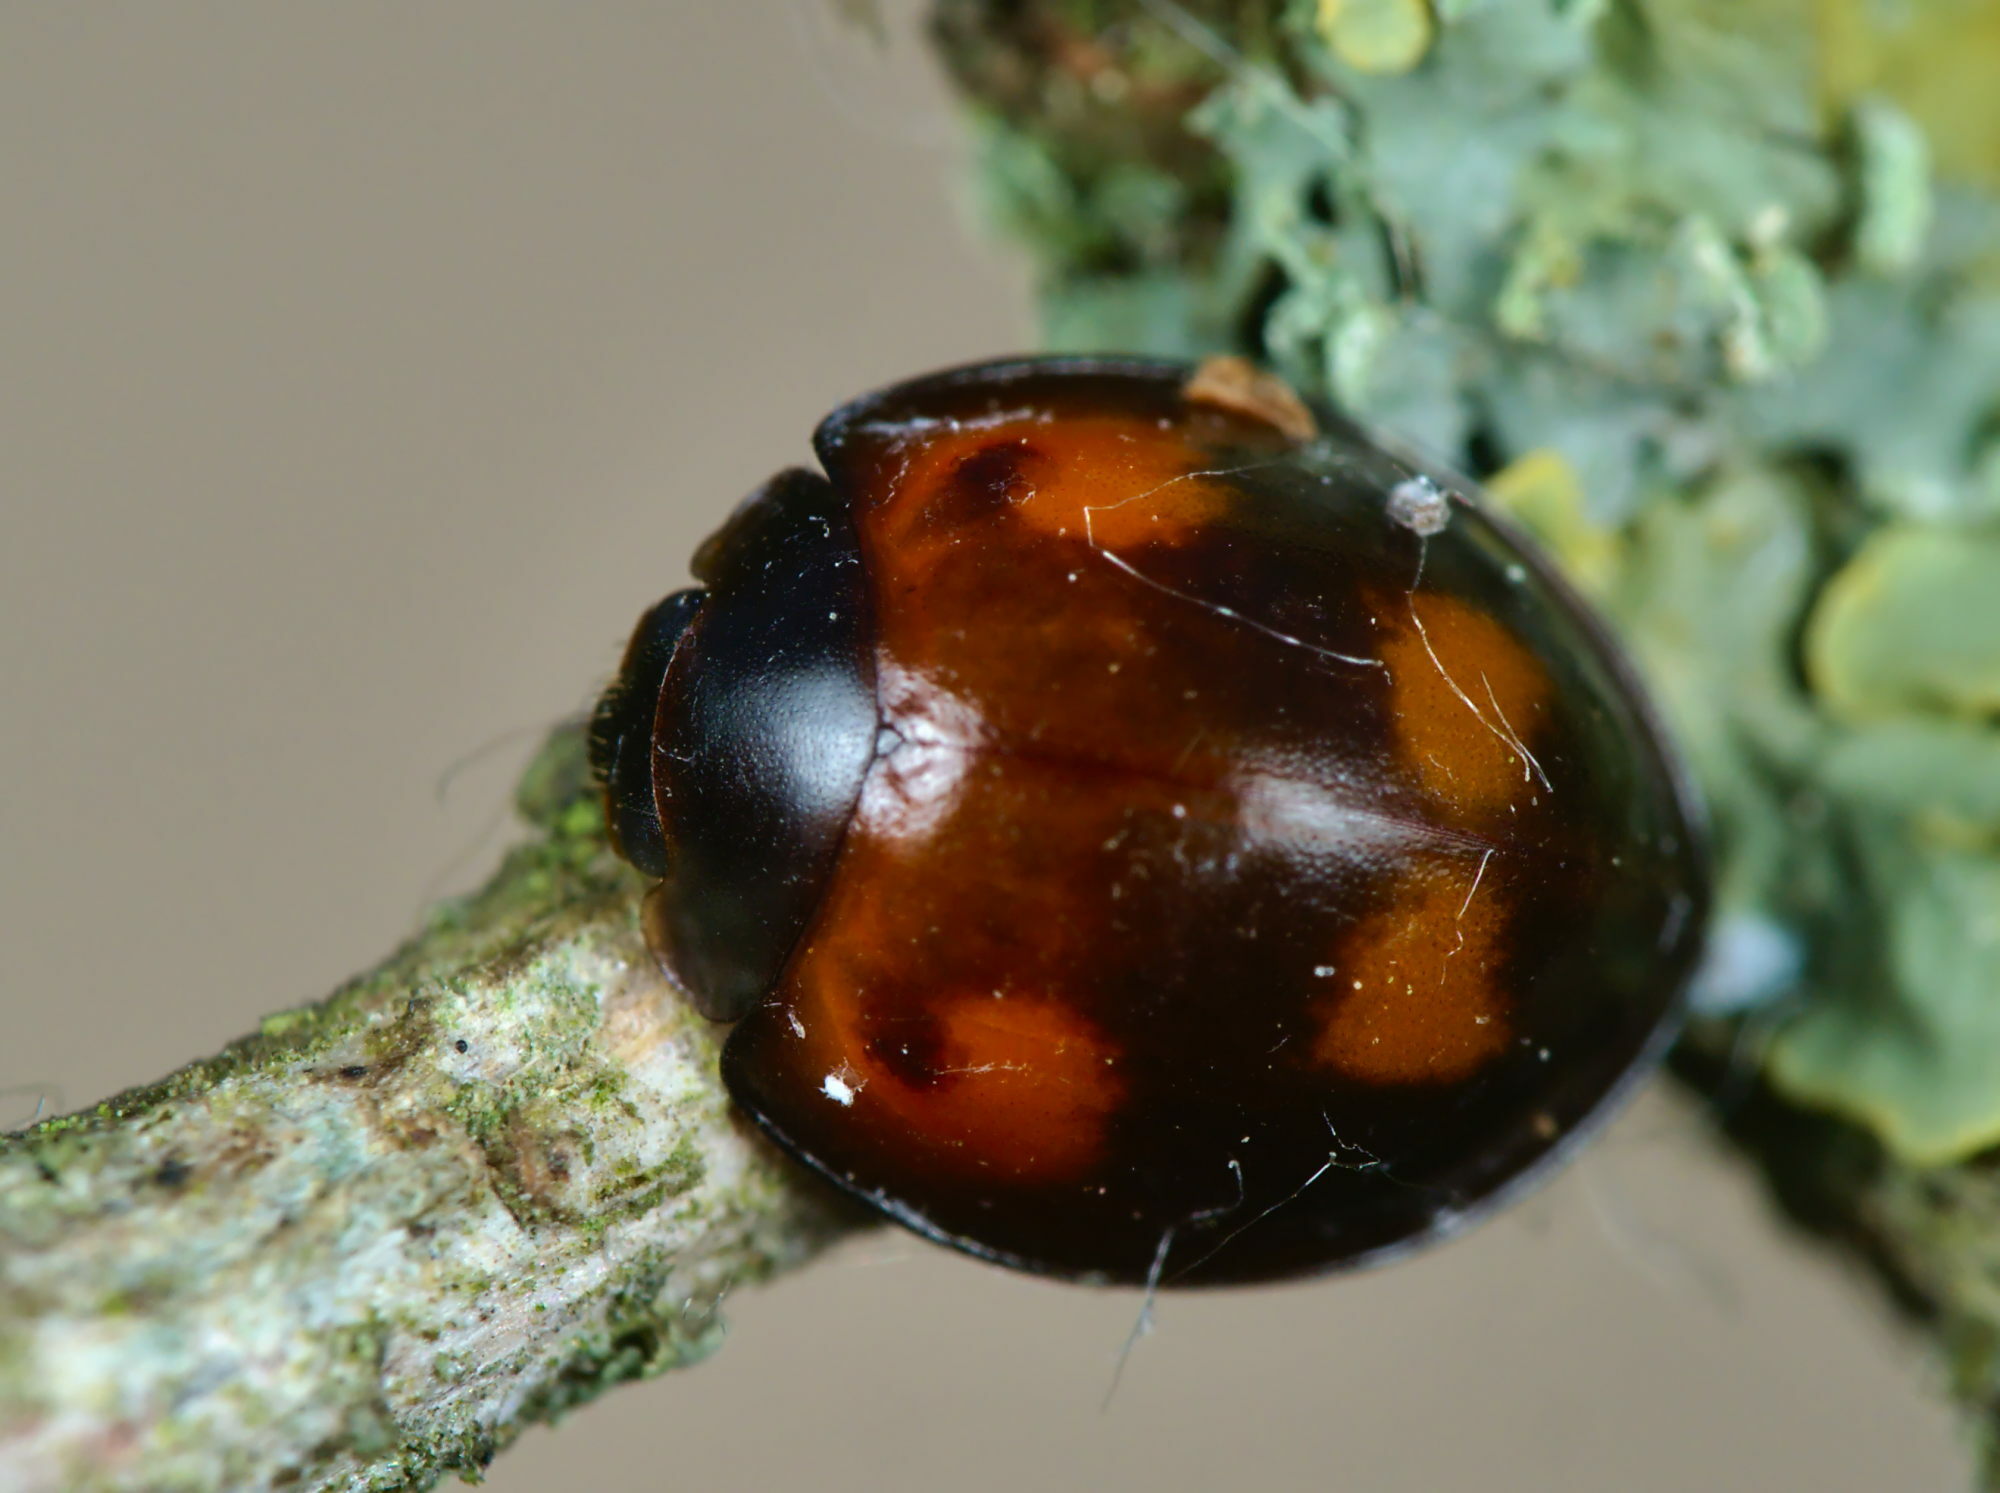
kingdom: Animalia
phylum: Arthropoda
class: Insecta
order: Coleoptera
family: Coccinellidae
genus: Brumus
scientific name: Brumus quadripustulatus
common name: Ladybird beetle
